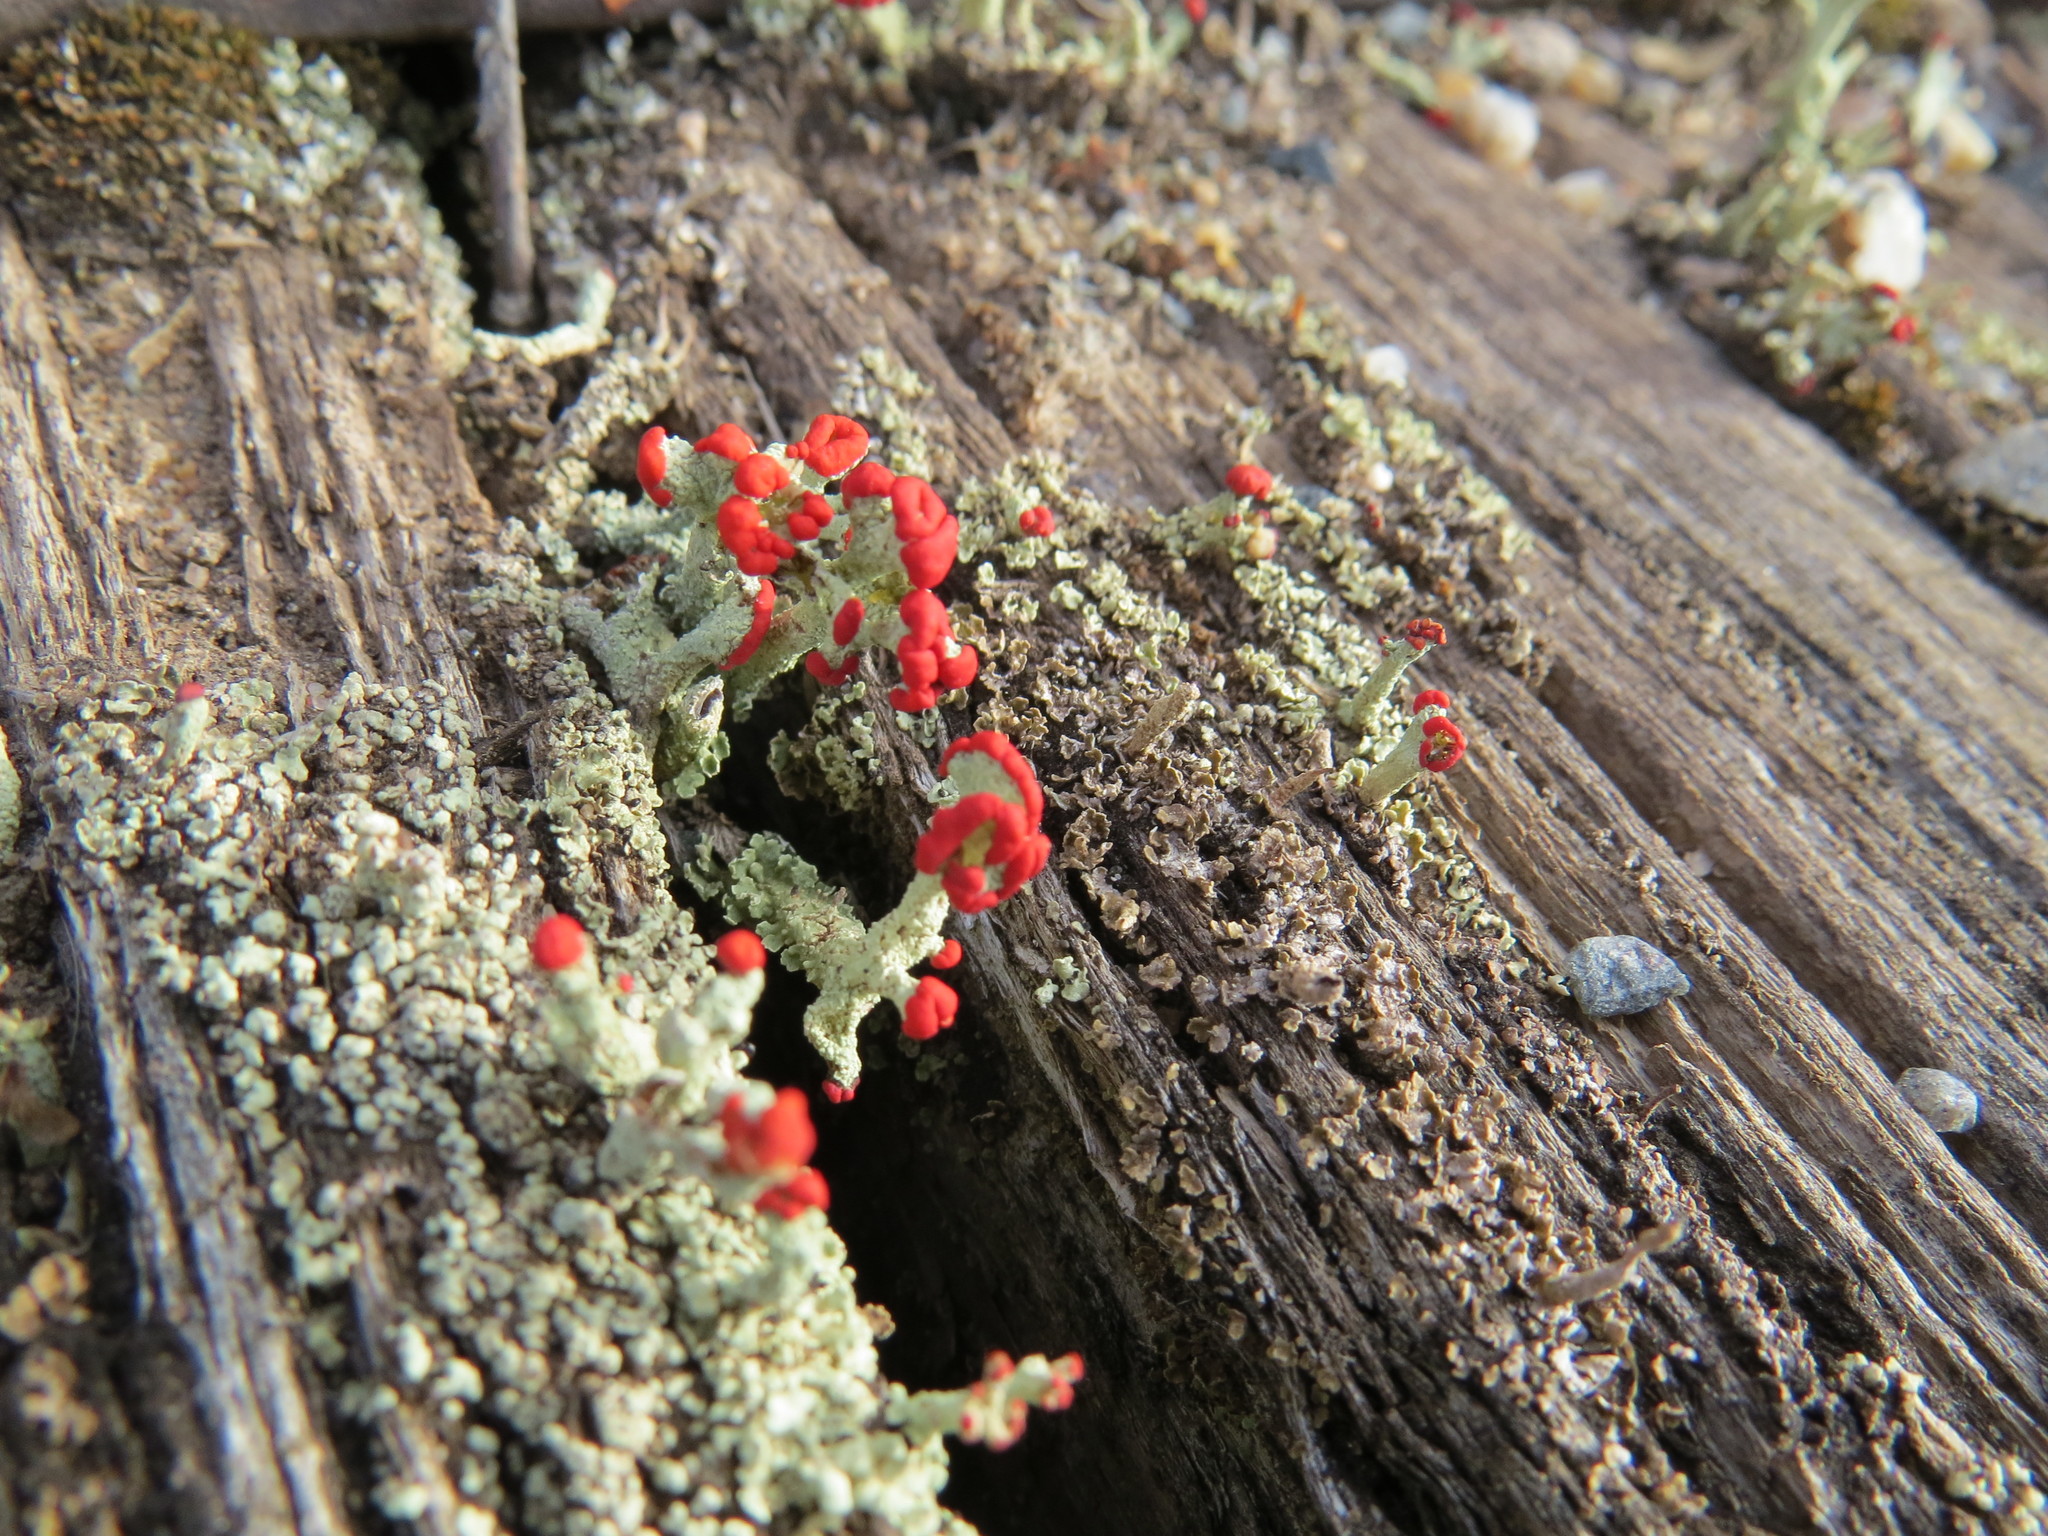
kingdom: Fungi
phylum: Ascomycota
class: Lecanoromycetes
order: Lecanorales
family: Cladoniaceae
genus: Cladonia
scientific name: Cladonia floerkeana
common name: Gritty british soldiers lichen
